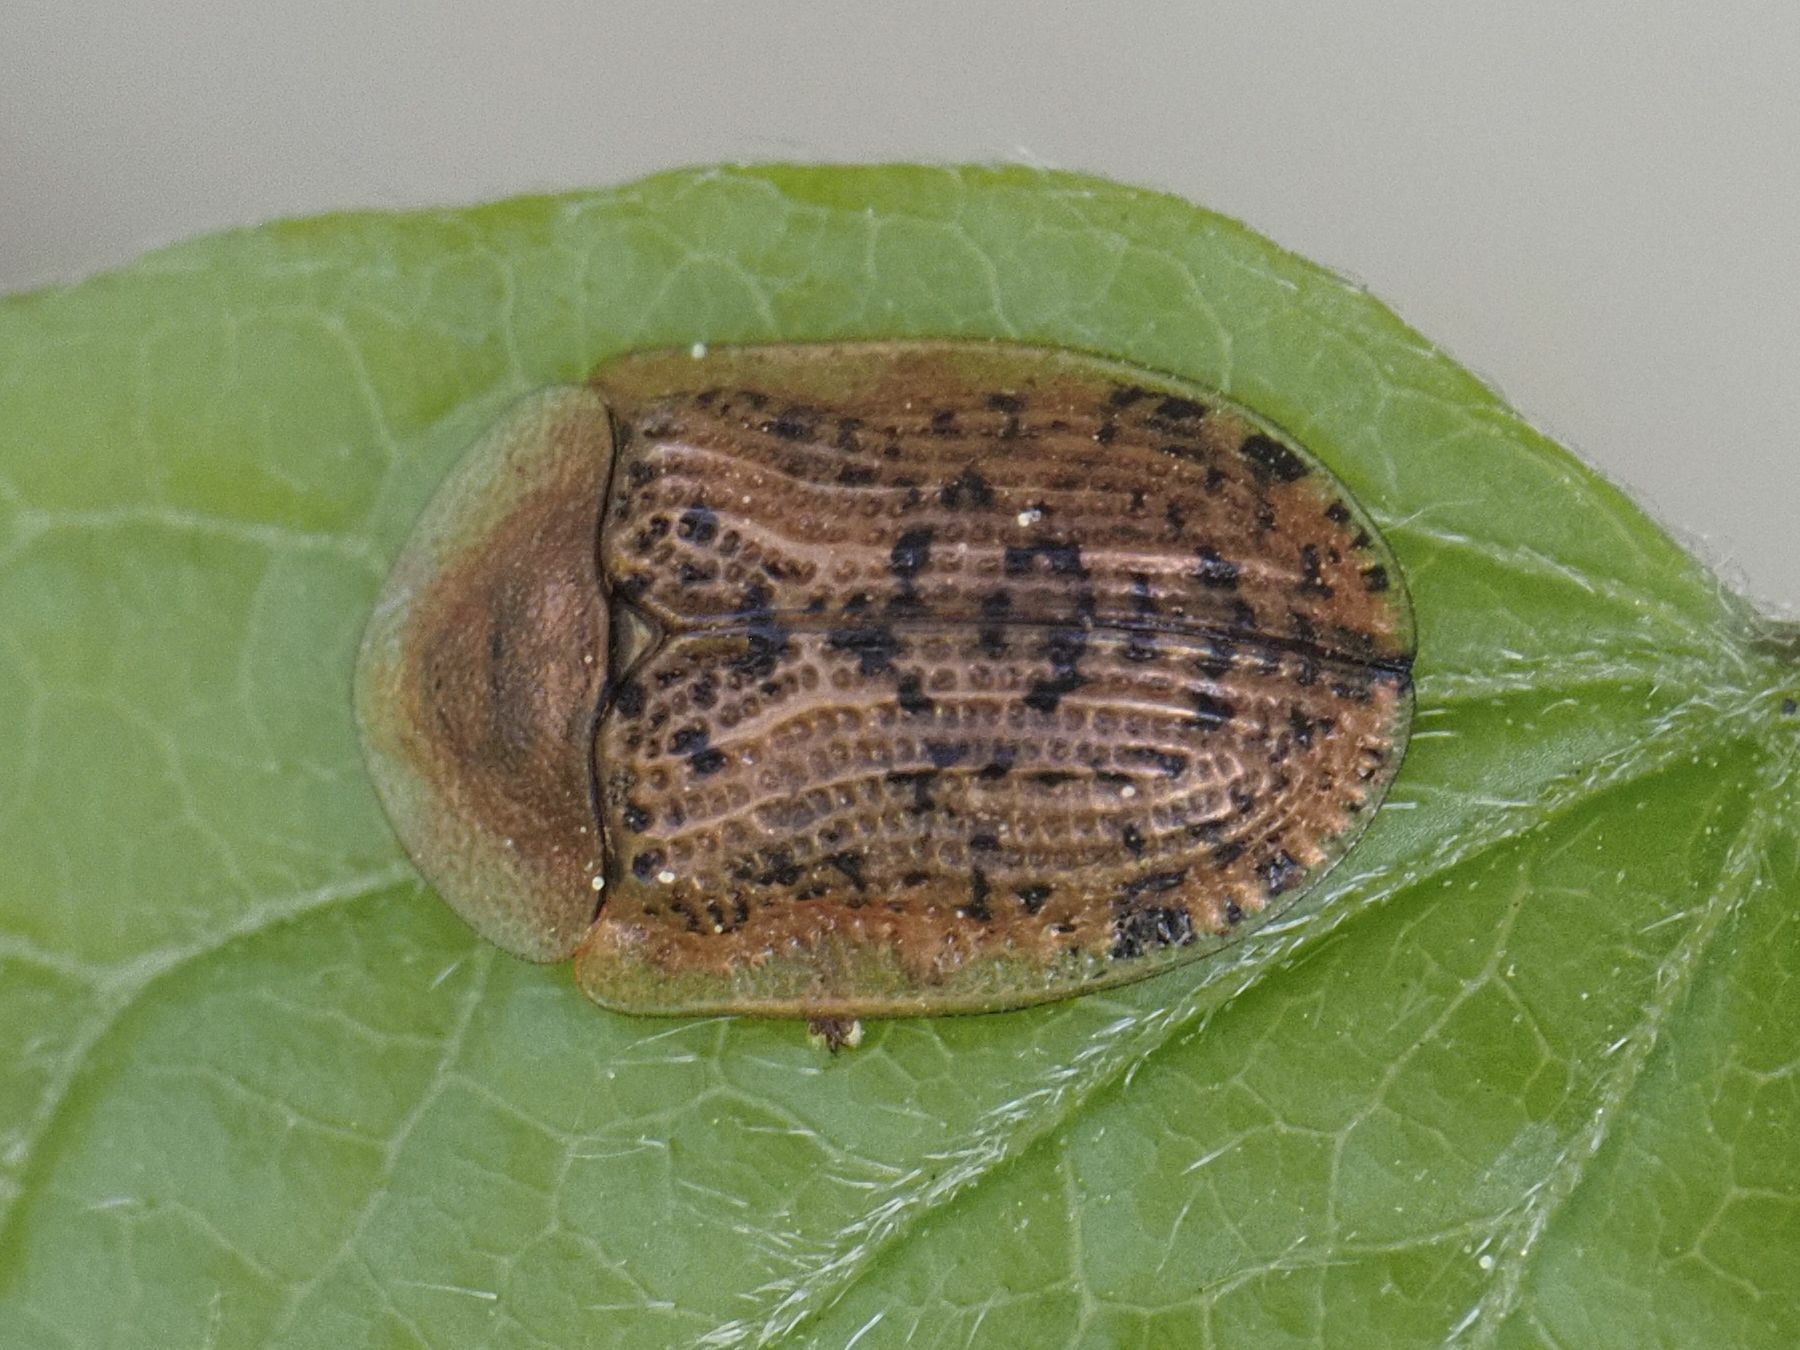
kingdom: Animalia
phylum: Arthropoda
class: Insecta
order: Coleoptera
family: Chrysomelidae
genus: Cassida
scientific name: Cassida nebulosa
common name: Beet tortoise beetle
